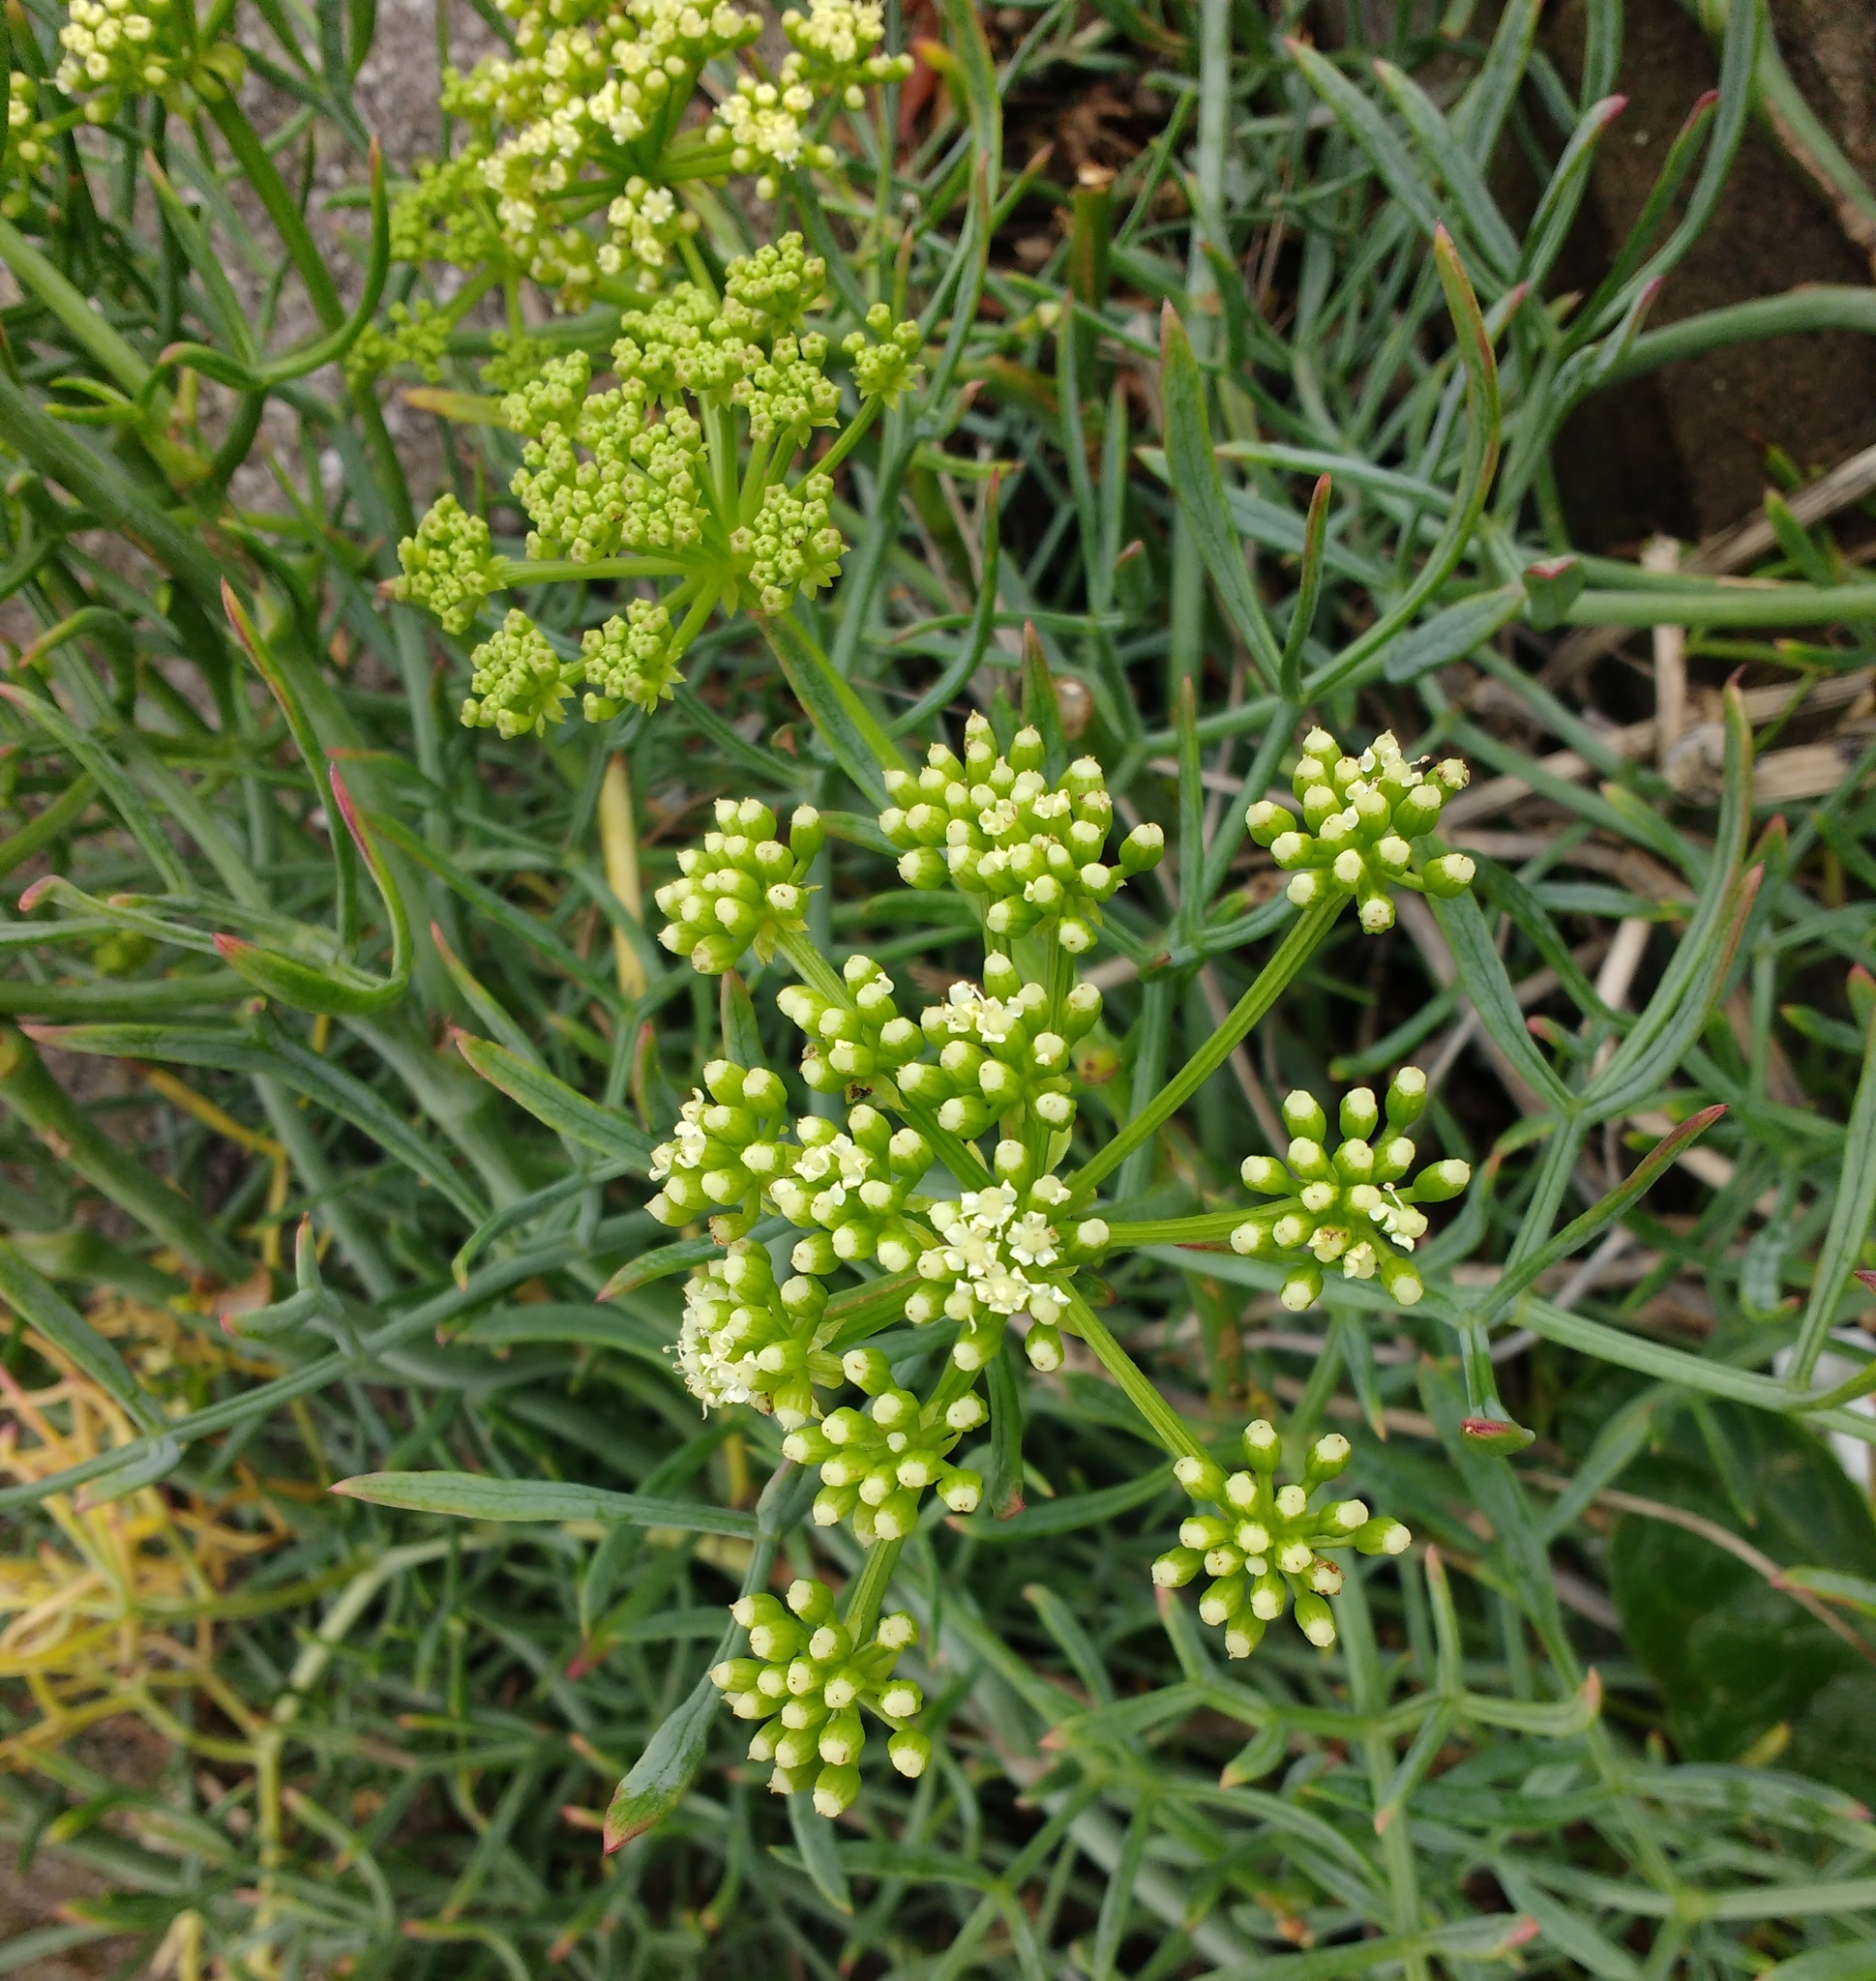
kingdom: Plantae
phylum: Tracheophyta
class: Magnoliopsida
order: Apiales
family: Apiaceae
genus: Crithmum
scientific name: Crithmum maritimum
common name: Rock samphire
